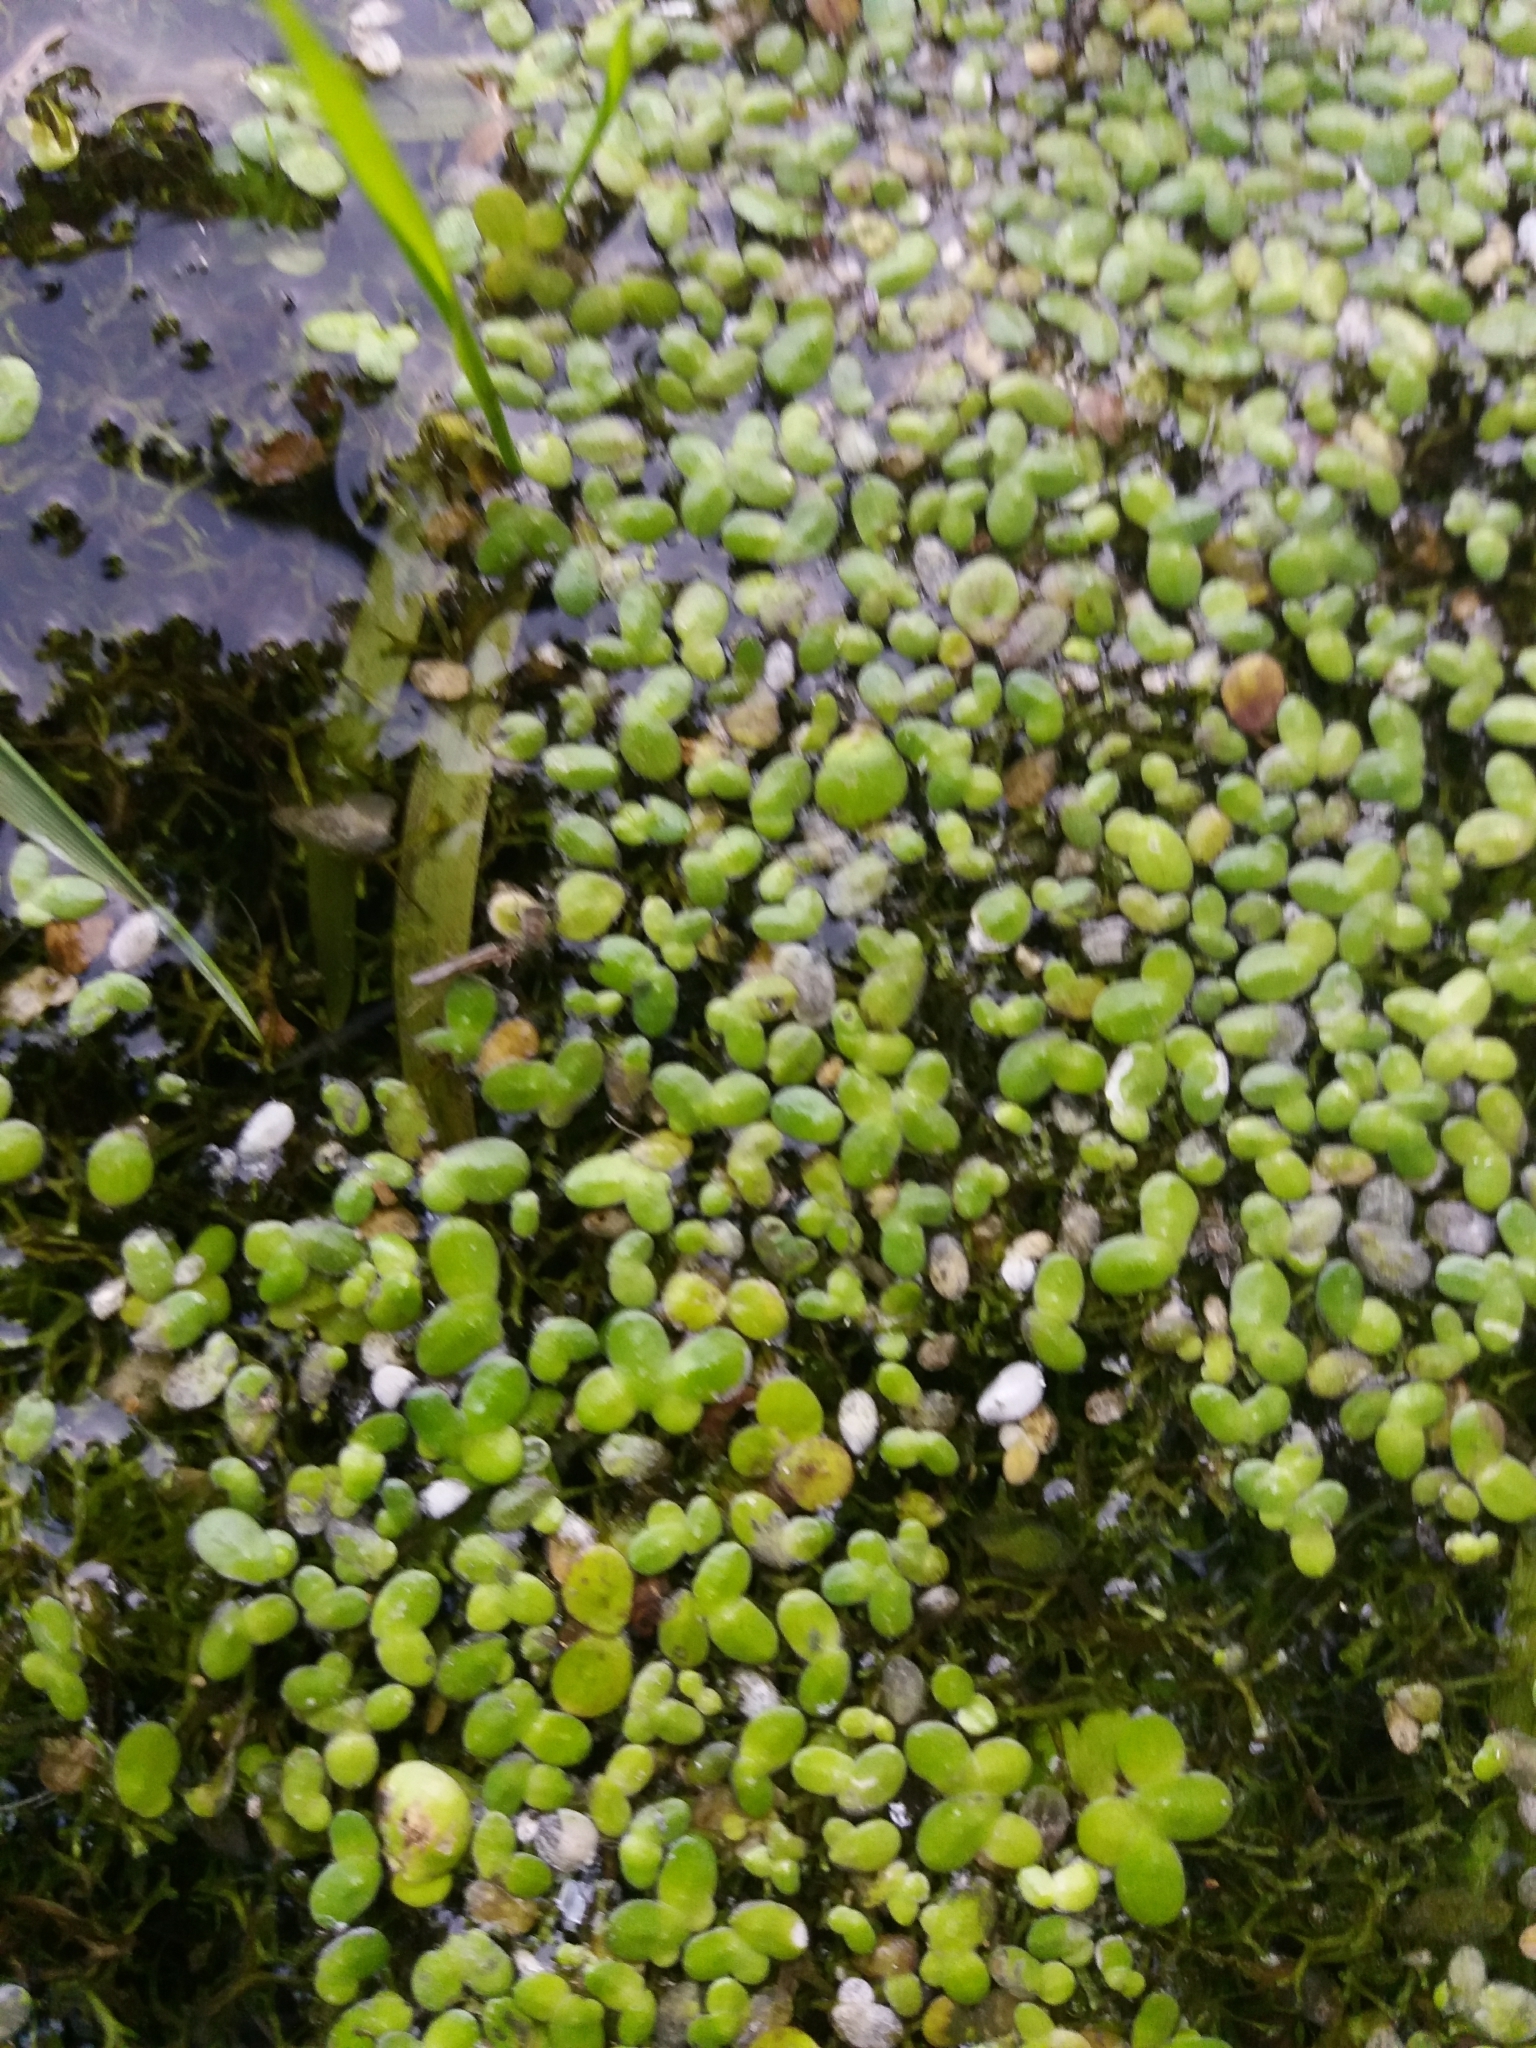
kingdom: Plantae
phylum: Tracheophyta
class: Liliopsida
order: Alismatales
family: Araceae
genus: Lemna
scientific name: Lemna
